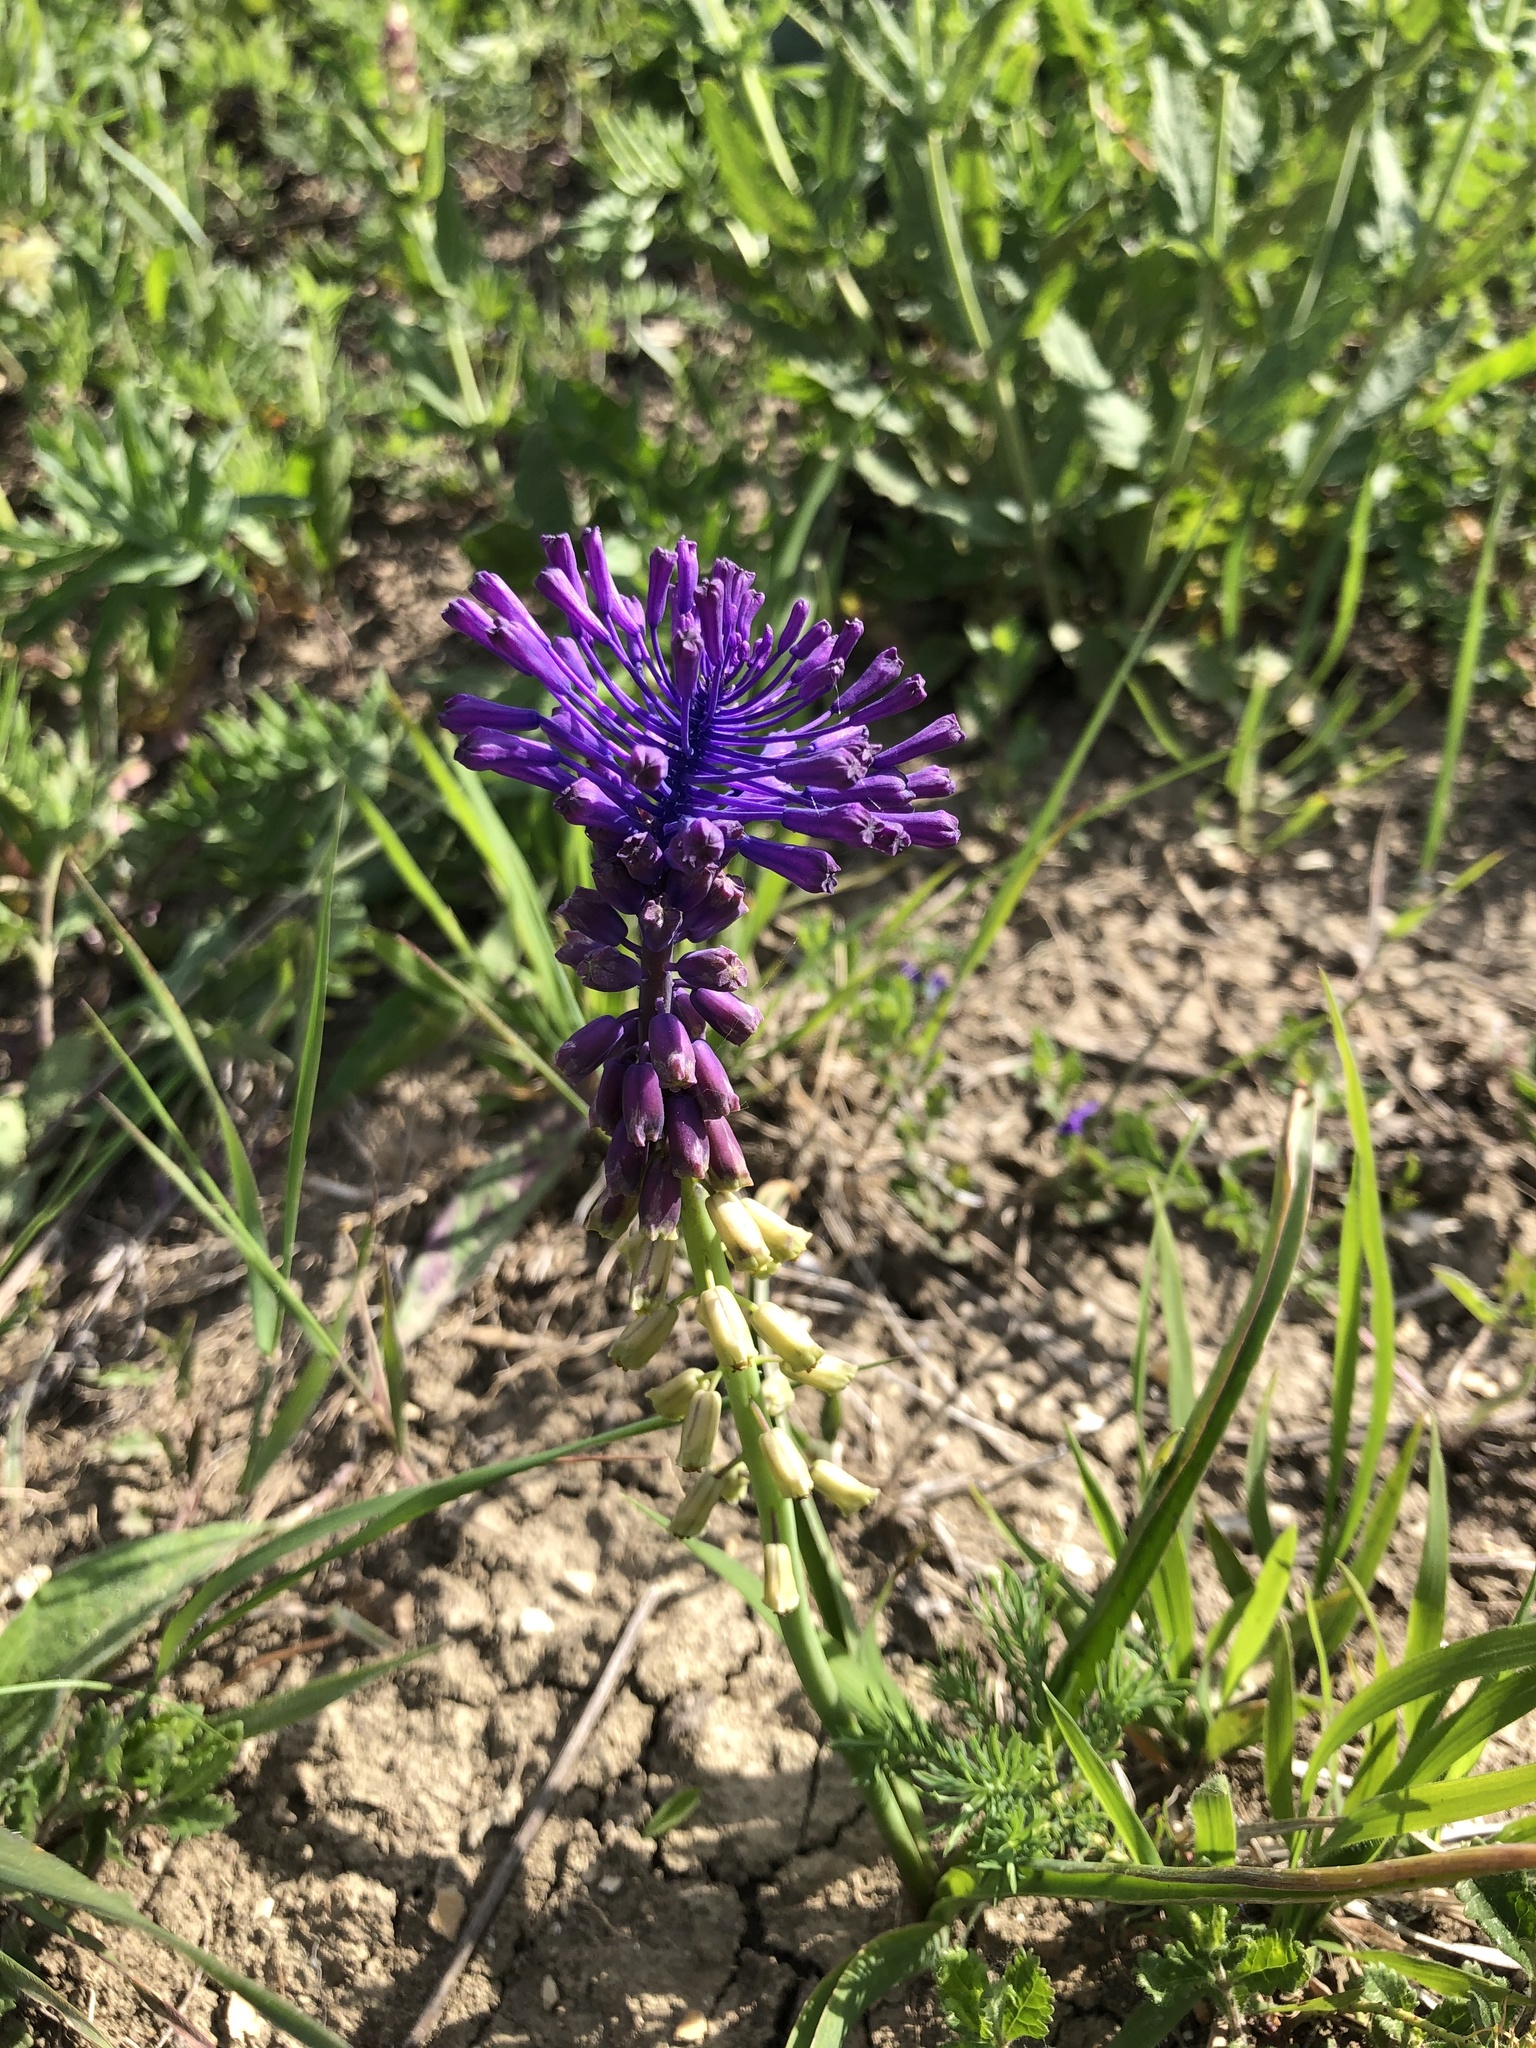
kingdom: Plantae
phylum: Tracheophyta
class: Liliopsida
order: Asparagales
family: Asparagaceae
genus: Muscari
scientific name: Muscari tenuiflorum
